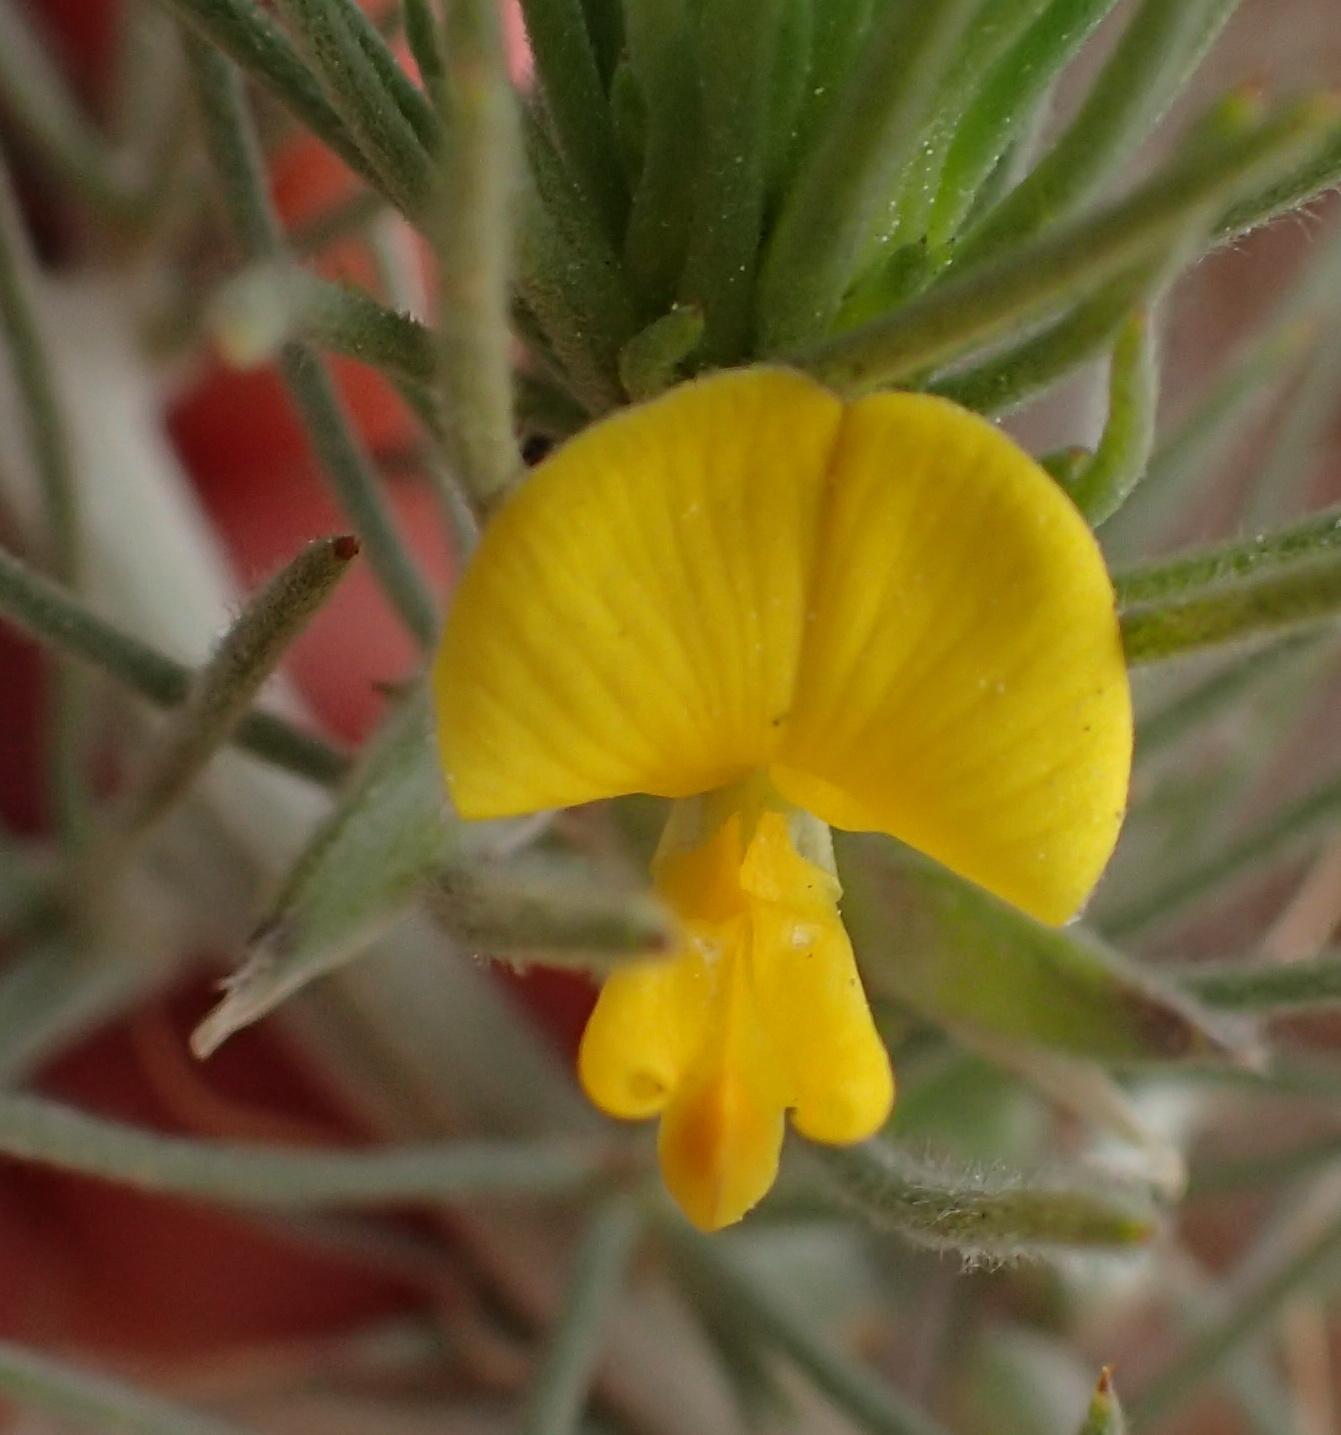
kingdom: Plantae
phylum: Tracheophyta
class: Magnoliopsida
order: Fabales
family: Fabaceae
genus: Aspalathus
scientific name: Aspalathus bowieana
